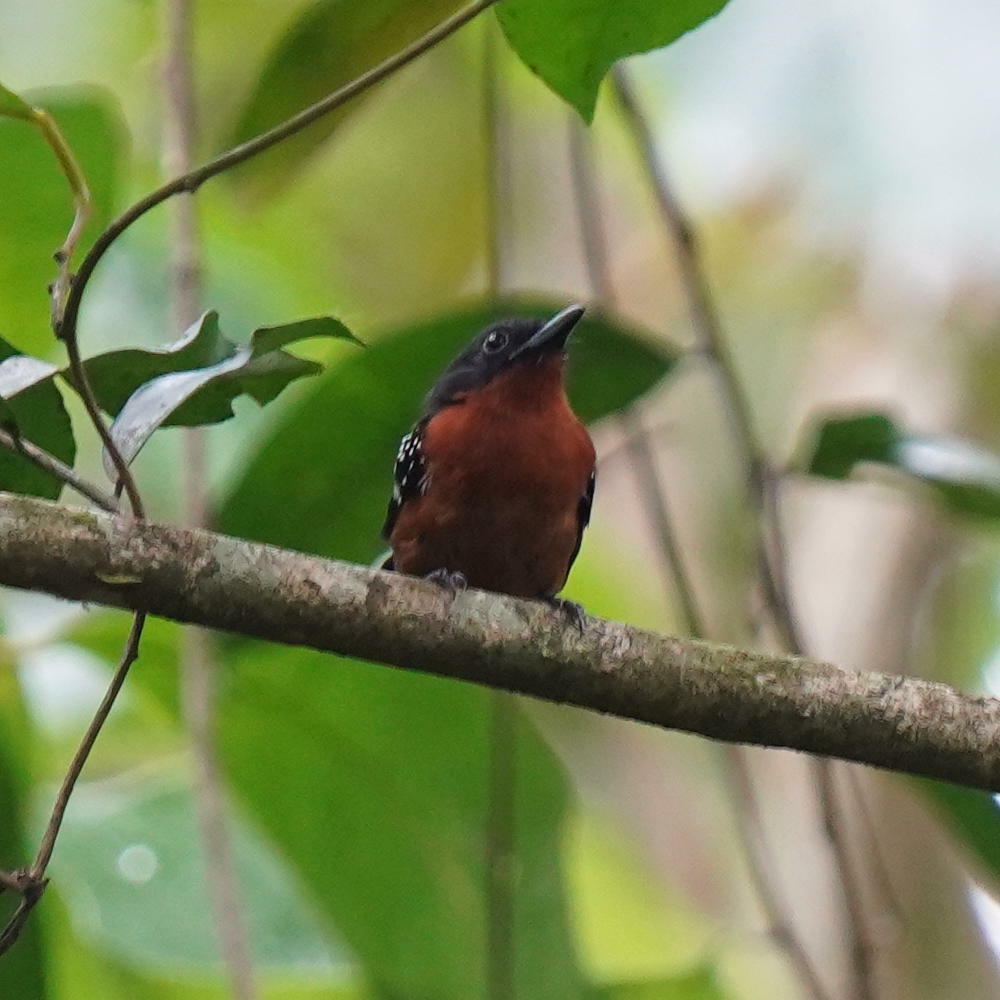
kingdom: Animalia
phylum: Chordata
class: Aves
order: Passeriformes
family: Thamnophilidae
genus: Microrhopias
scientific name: Microrhopias quixensis
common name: Dot-winged antwren
